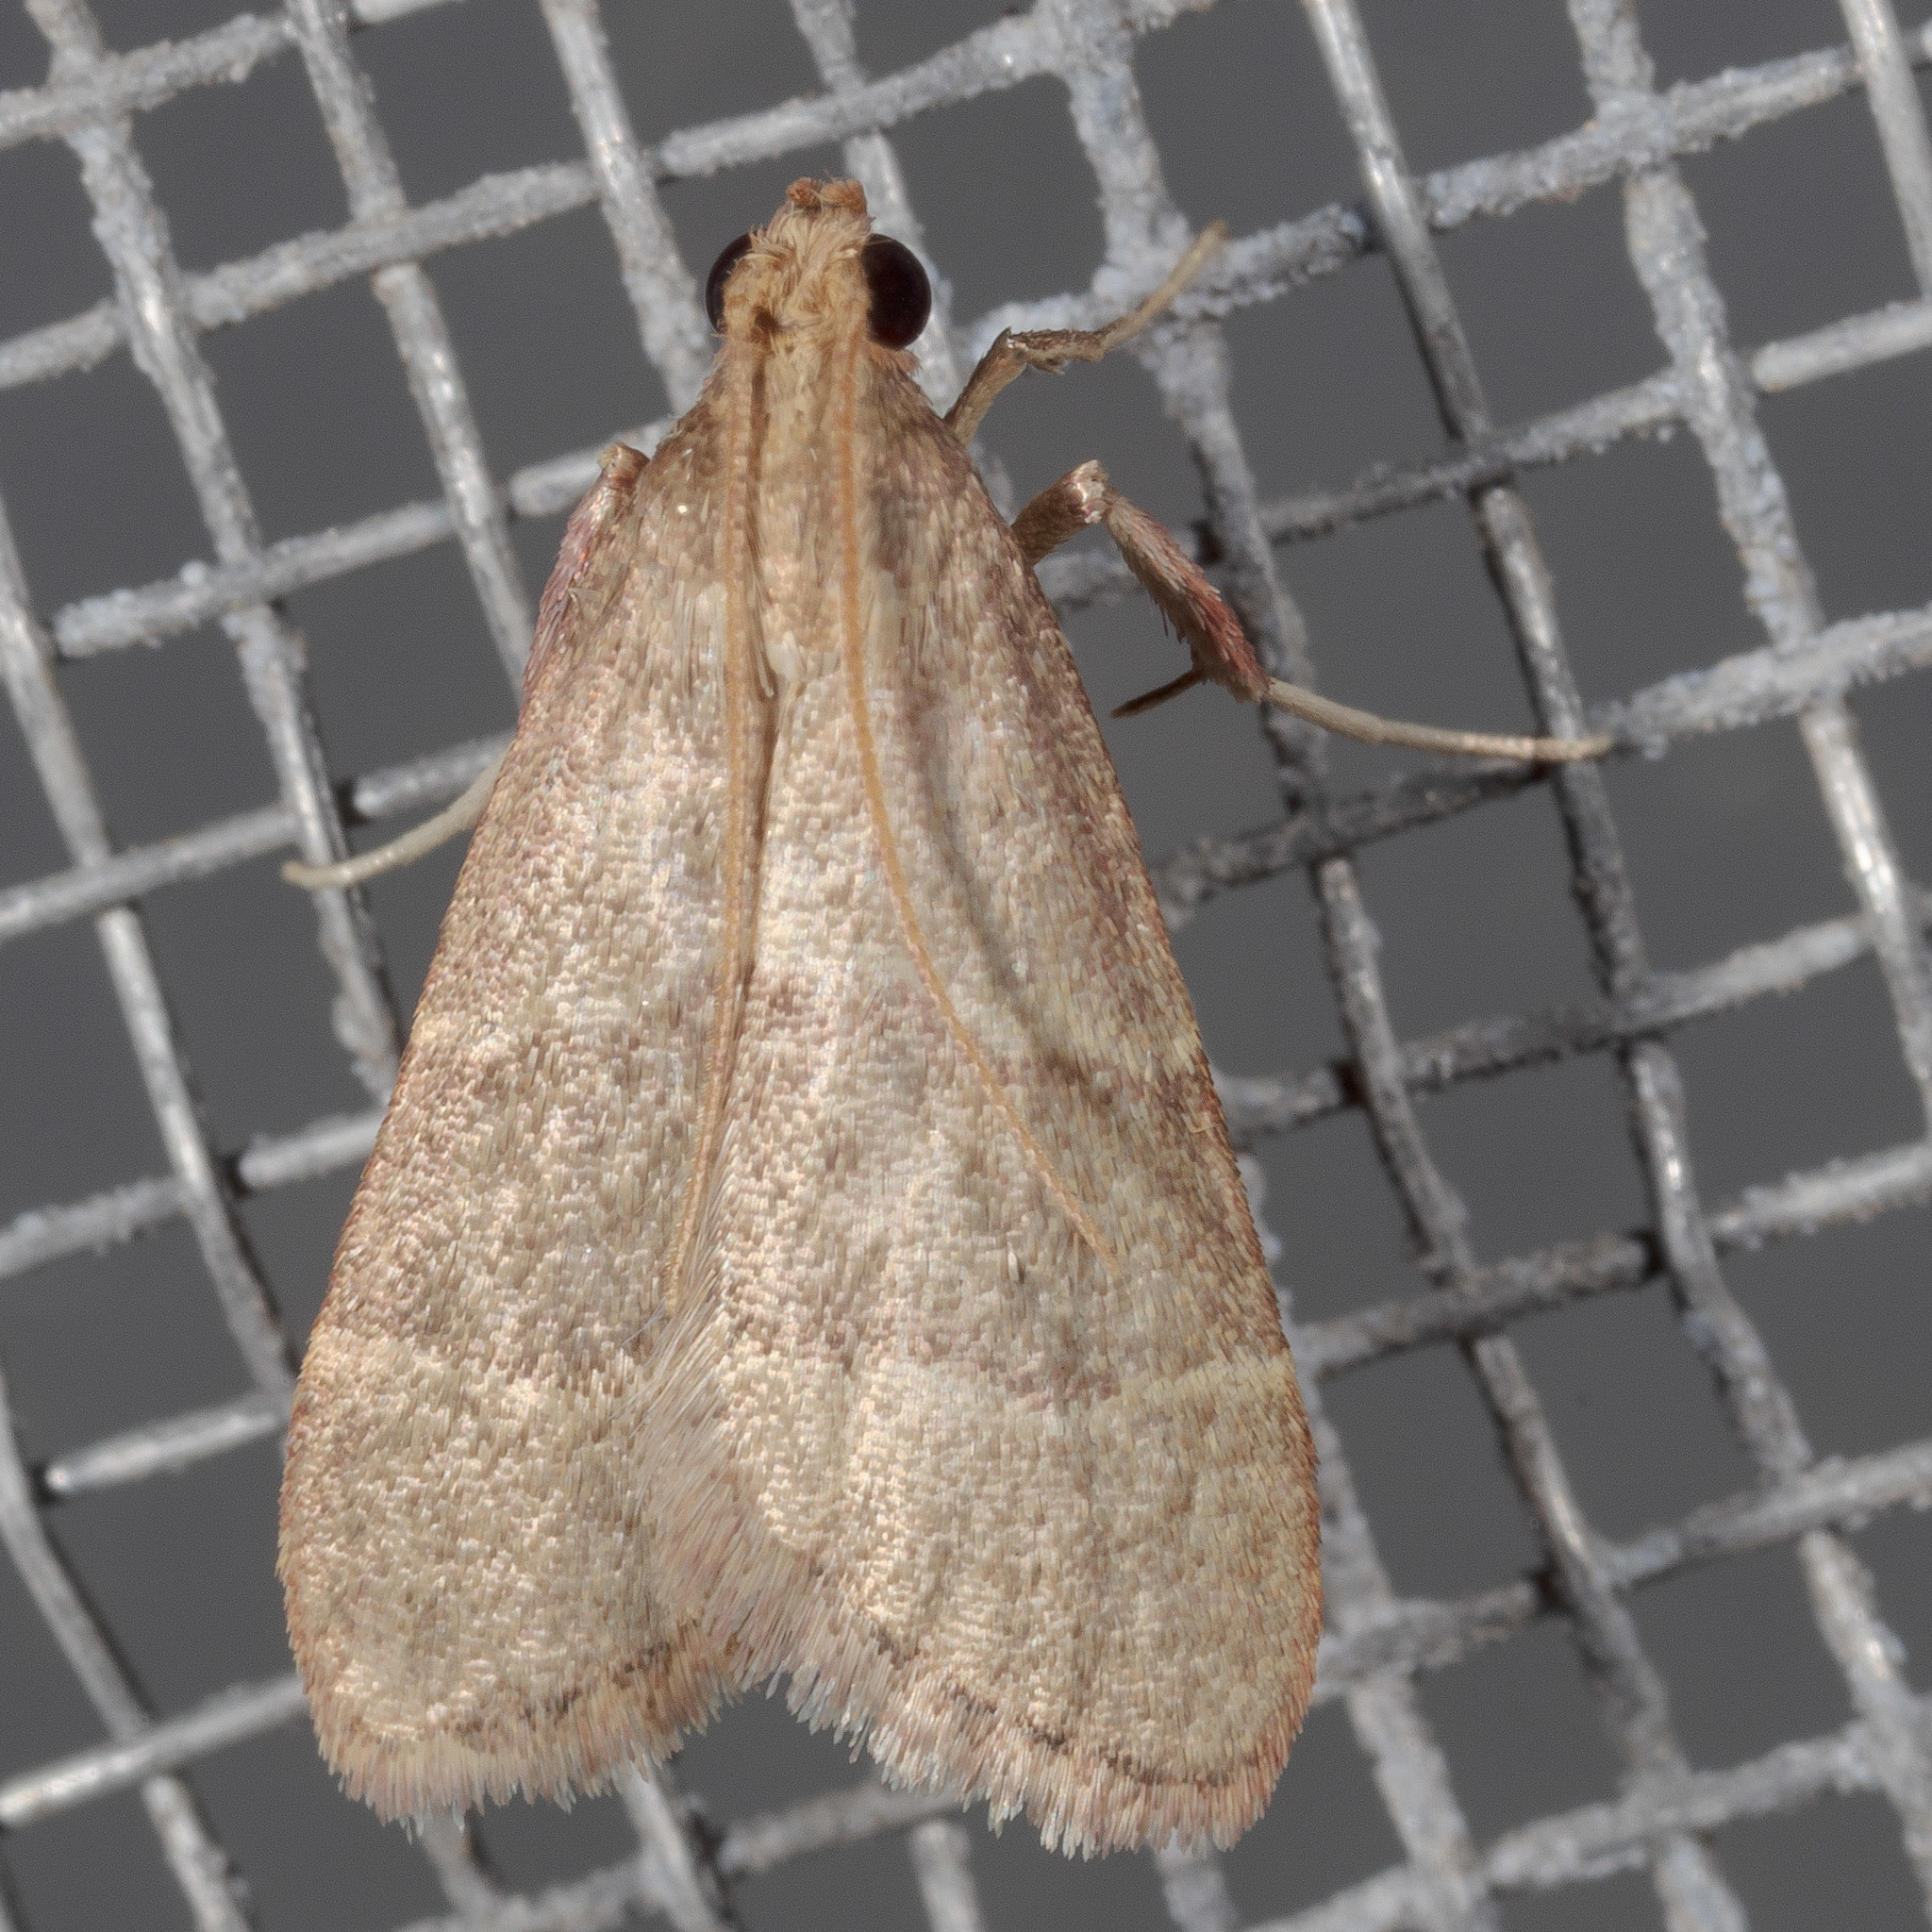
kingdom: Animalia
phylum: Arthropoda
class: Insecta
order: Lepidoptera
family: Pyralidae
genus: Arta
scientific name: Arta epicoenalis
